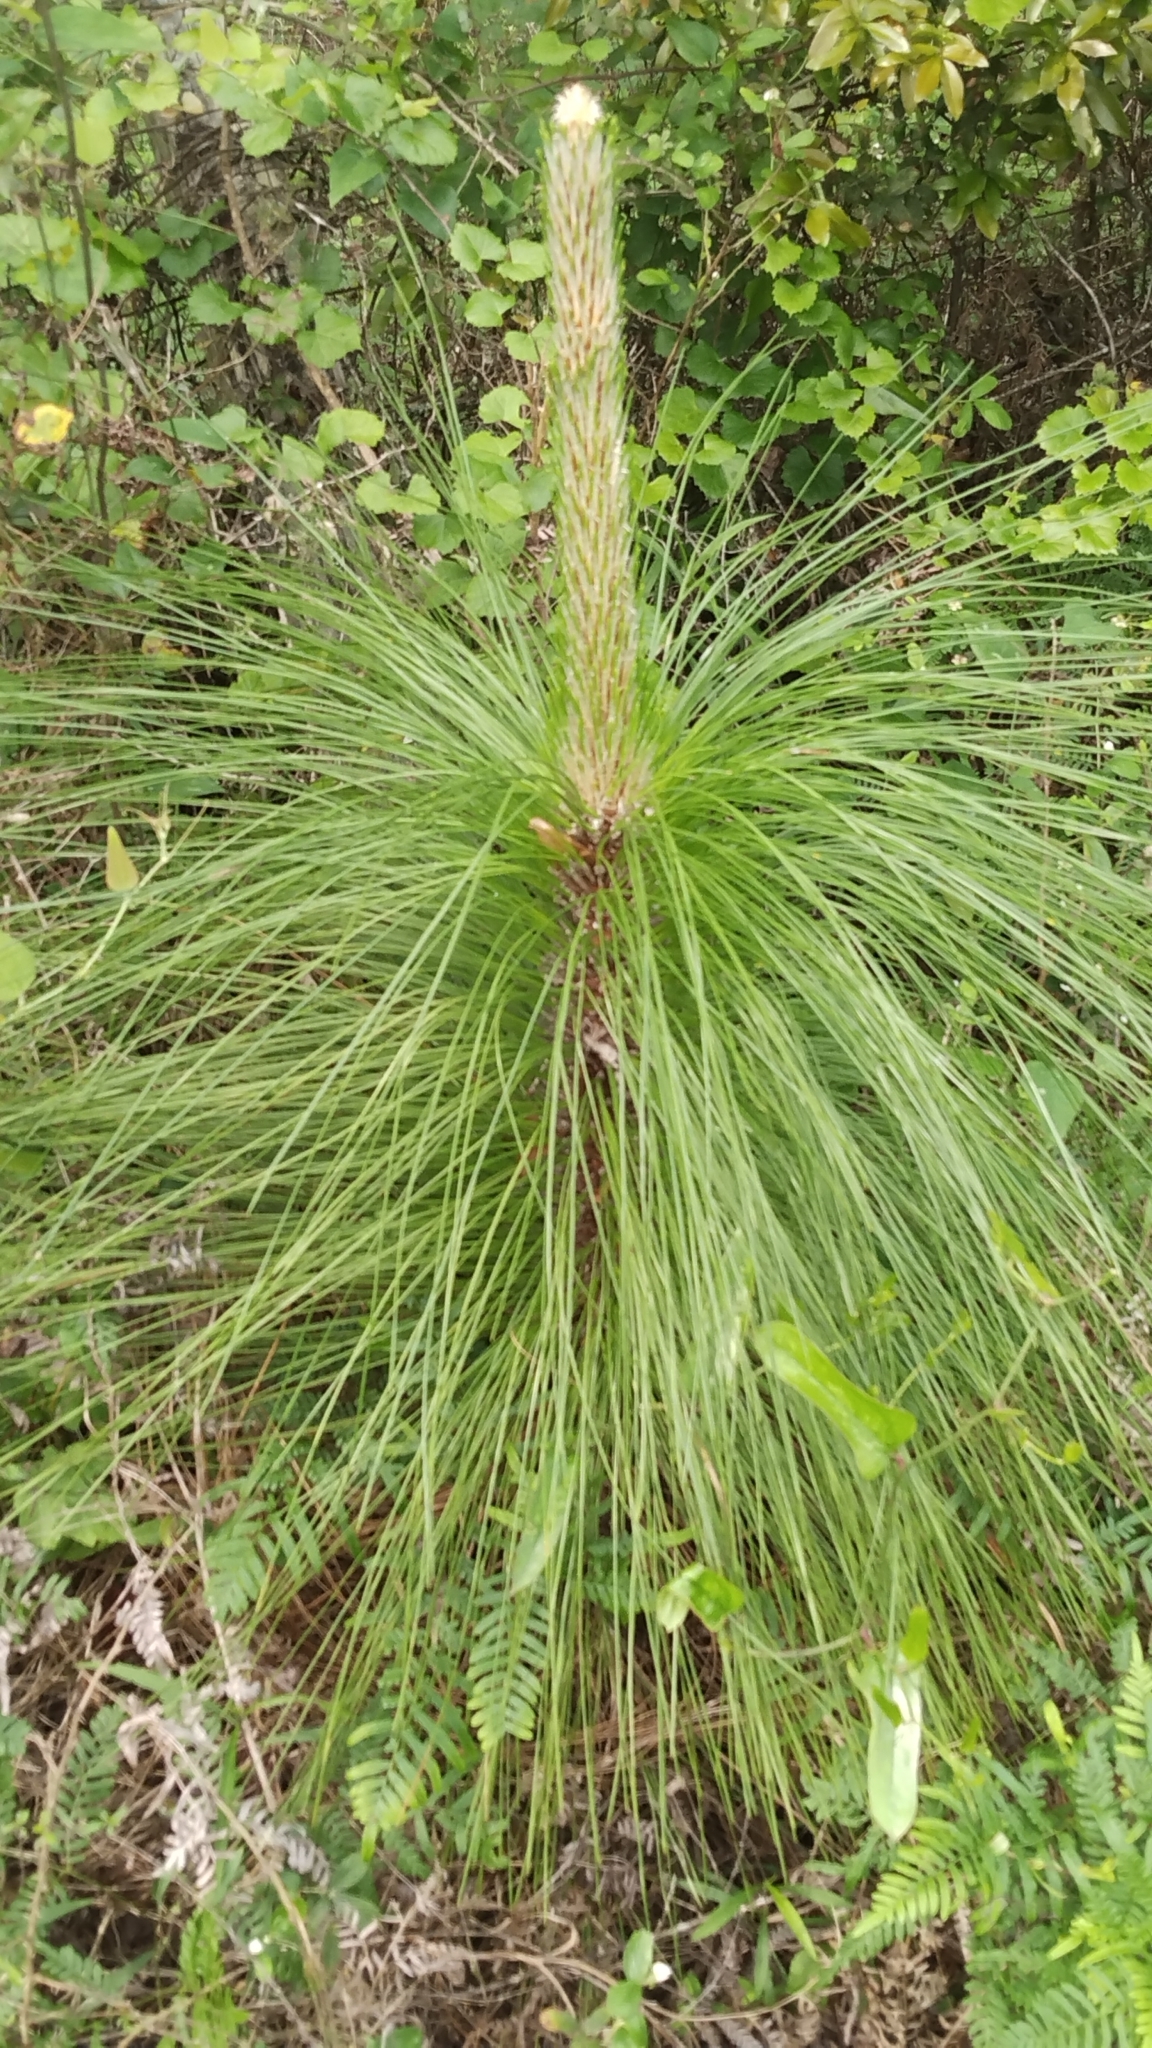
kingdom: Plantae
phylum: Tracheophyta
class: Pinopsida
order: Pinales
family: Pinaceae
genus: Pinus
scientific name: Pinus palustris
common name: Longleaf pine
